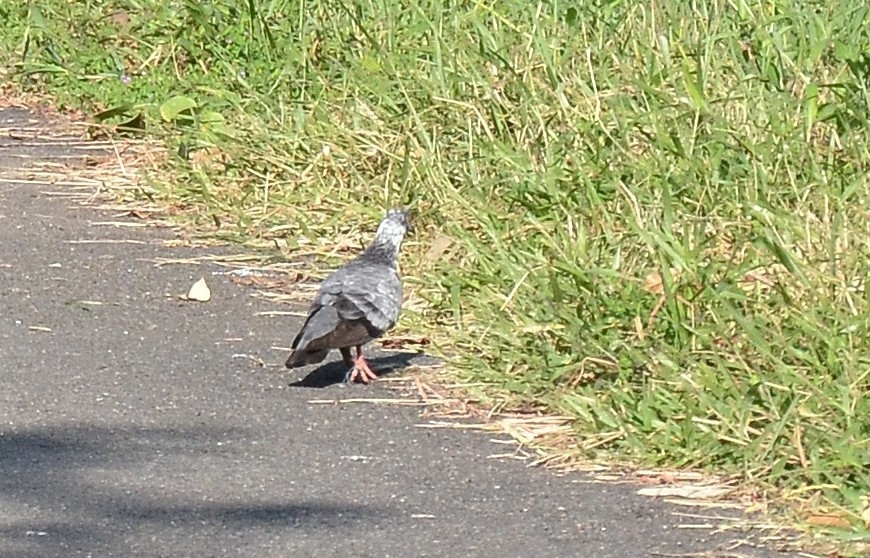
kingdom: Animalia
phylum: Chordata
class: Aves
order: Columbiformes
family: Columbidae
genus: Columba
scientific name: Columba livia
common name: Rock pigeon
